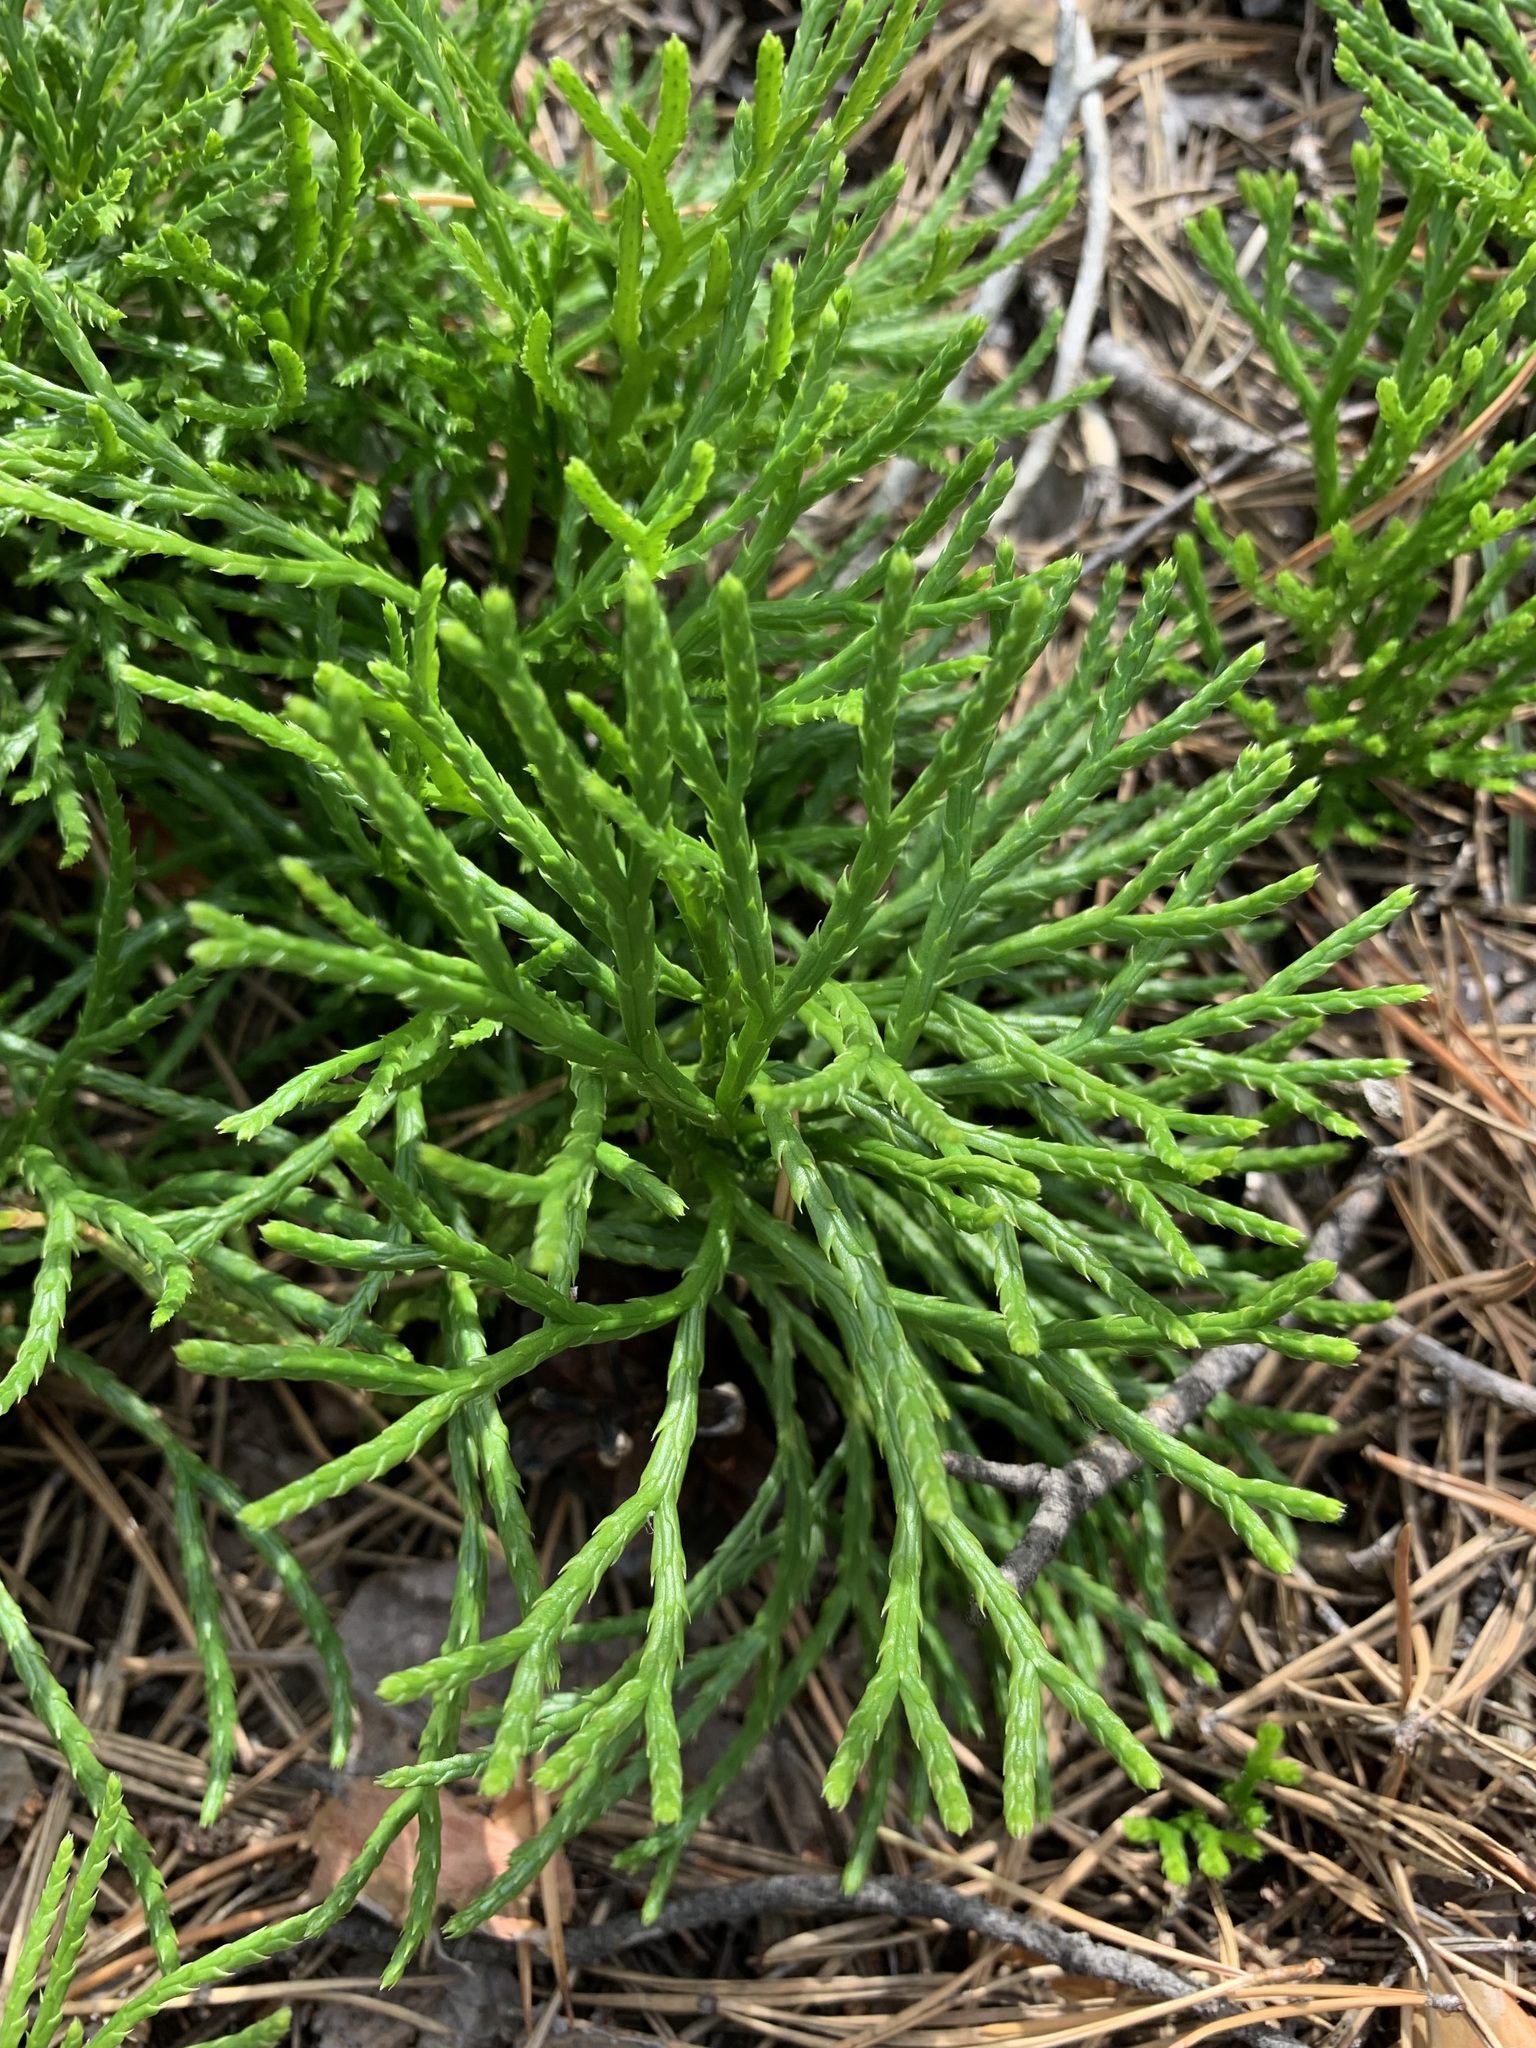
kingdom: Plantae
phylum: Tracheophyta
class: Lycopodiopsida
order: Lycopodiales
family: Lycopodiaceae
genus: Diphasiastrum
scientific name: Diphasiastrum complanatum
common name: Northern running-pine
